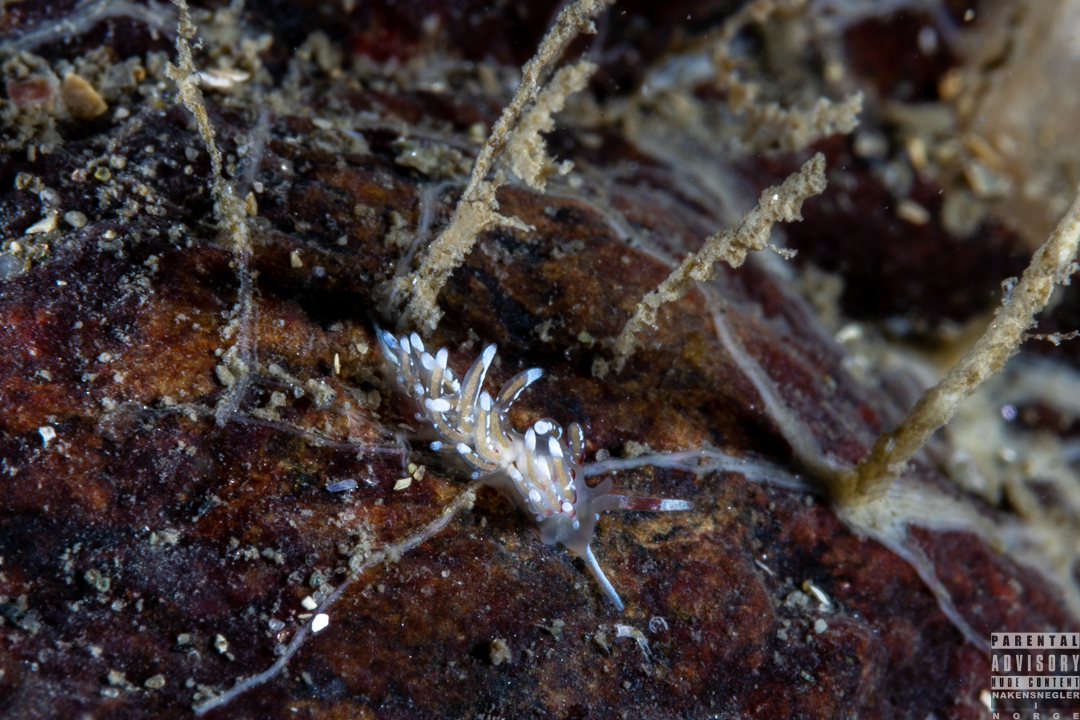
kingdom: Animalia
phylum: Mollusca
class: Gastropoda
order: Nudibranchia
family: Trinchesiidae
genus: Rubramoena
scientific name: Rubramoena rubescens
